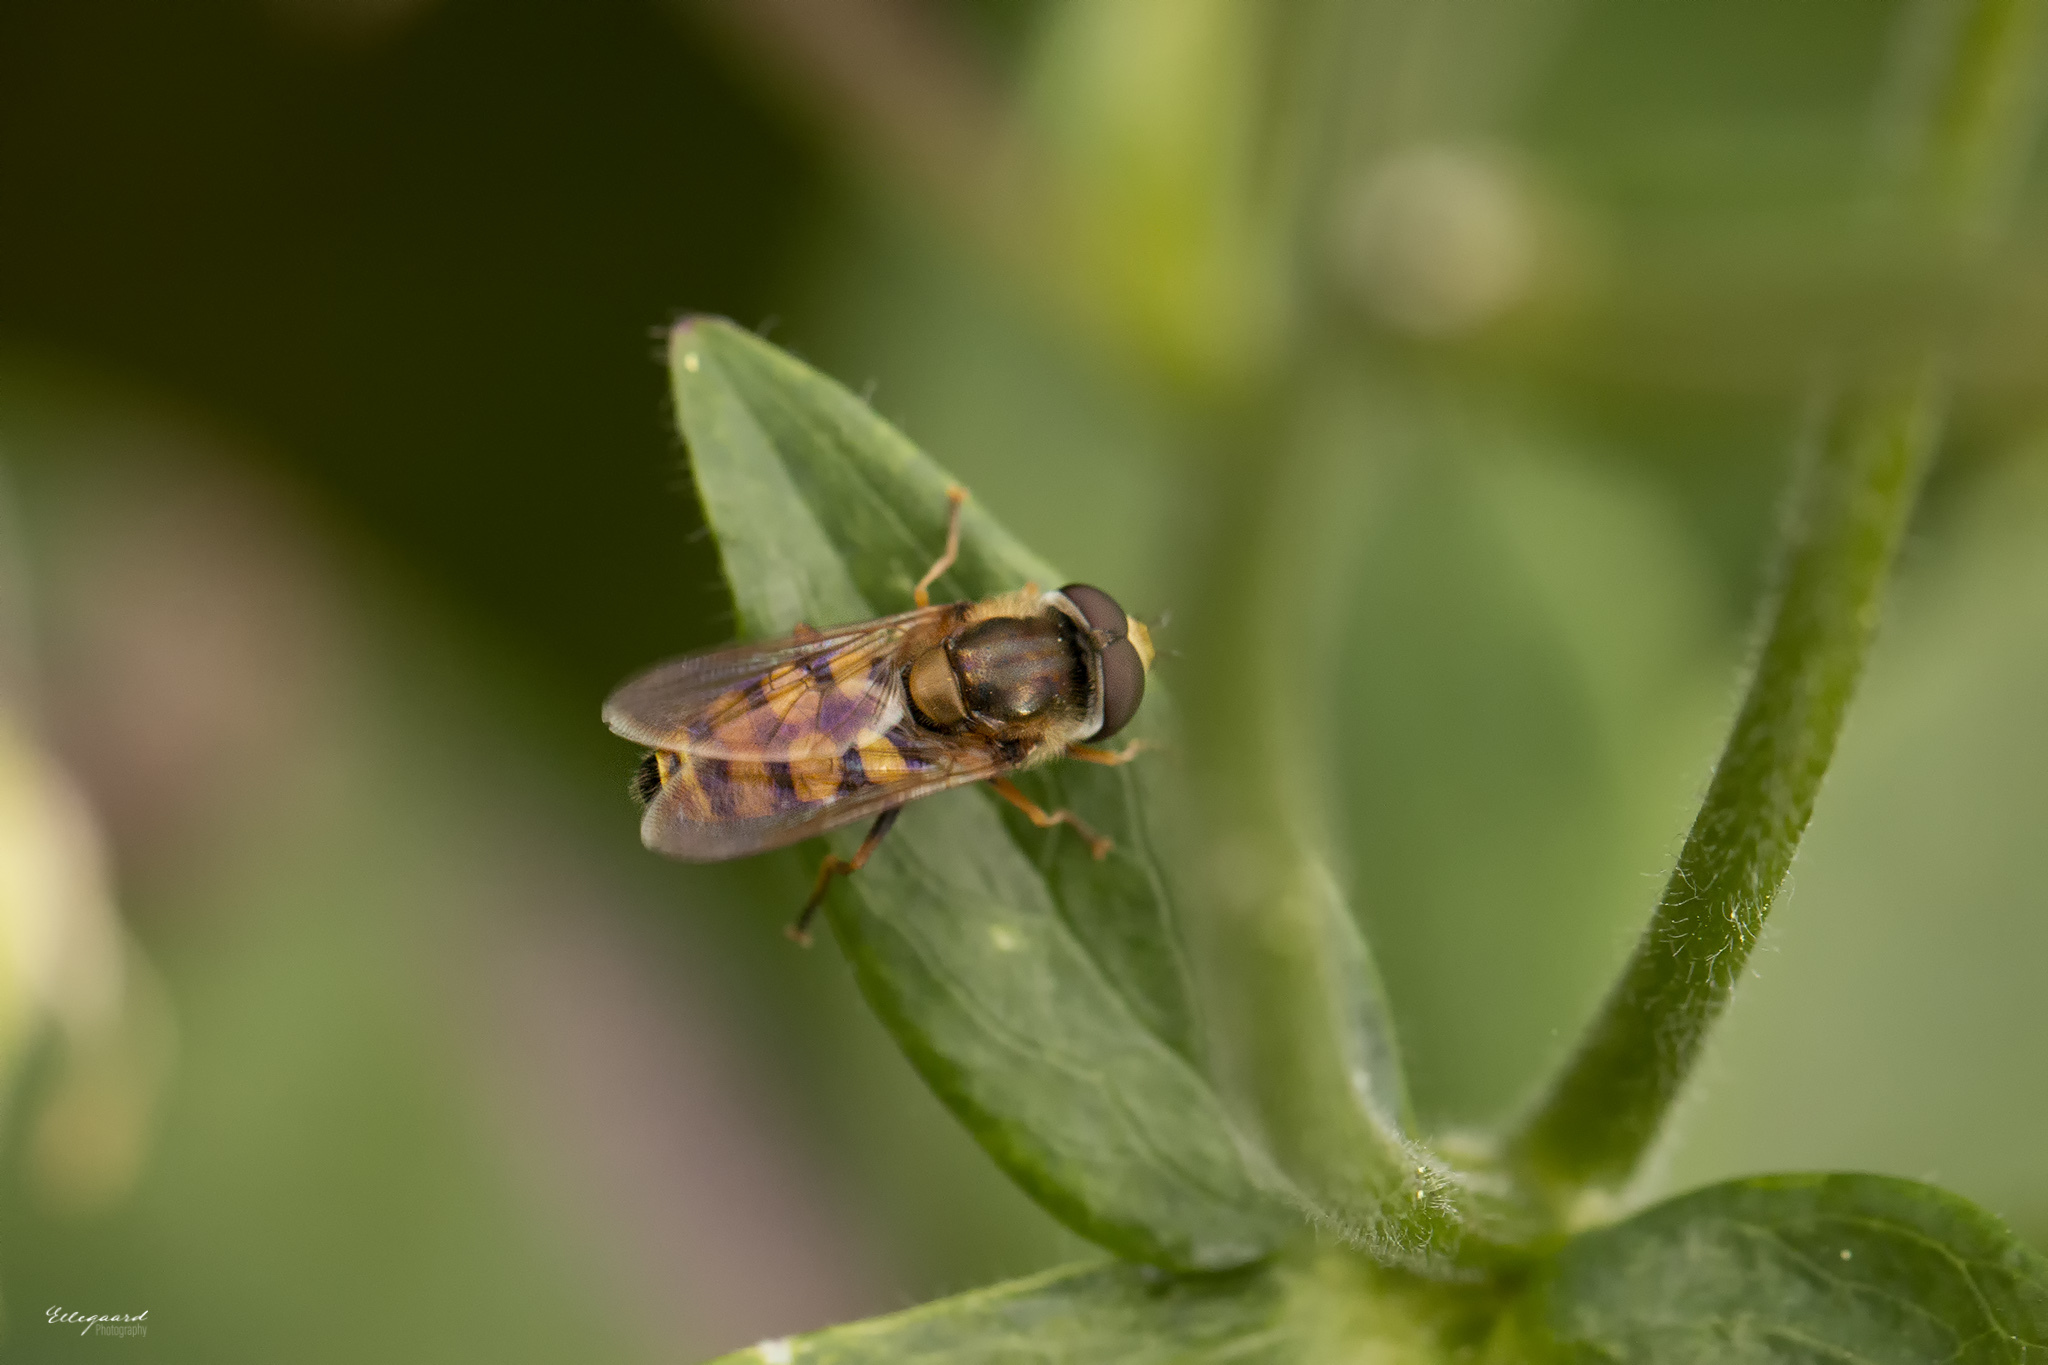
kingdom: Animalia
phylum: Arthropoda
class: Insecta
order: Diptera
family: Syrphidae
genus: Eupeodes
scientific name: Eupeodes corollae
